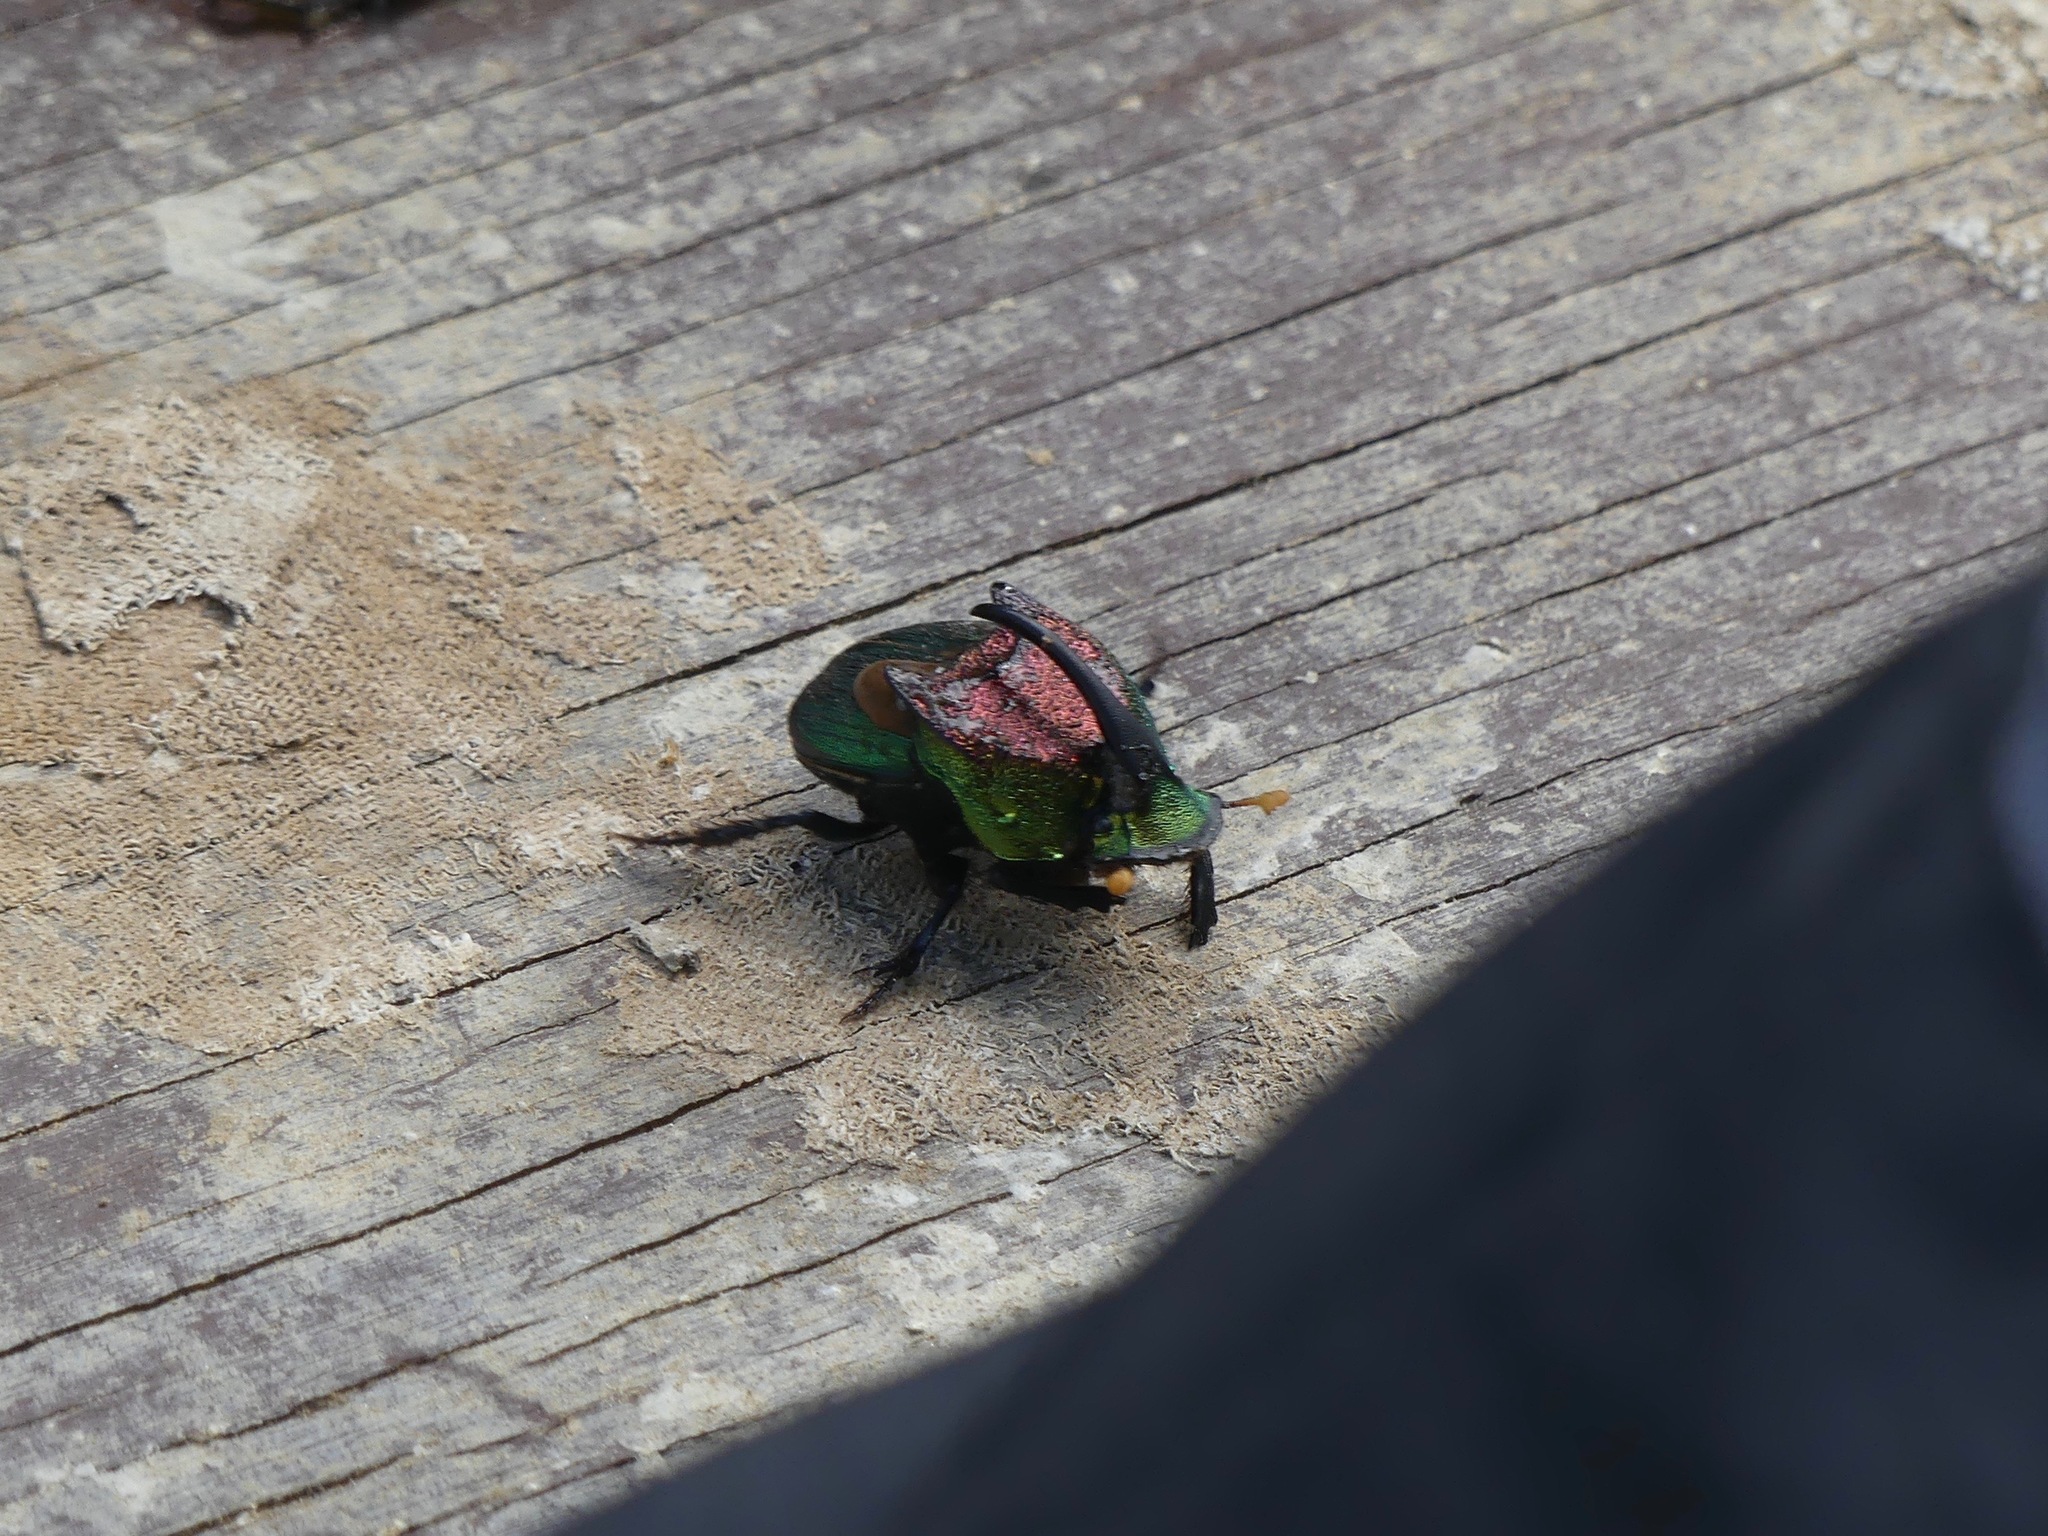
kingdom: Animalia
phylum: Arthropoda
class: Insecta
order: Coleoptera
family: Scarabaeidae
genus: Phanaeus
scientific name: Phanaeus difformis
